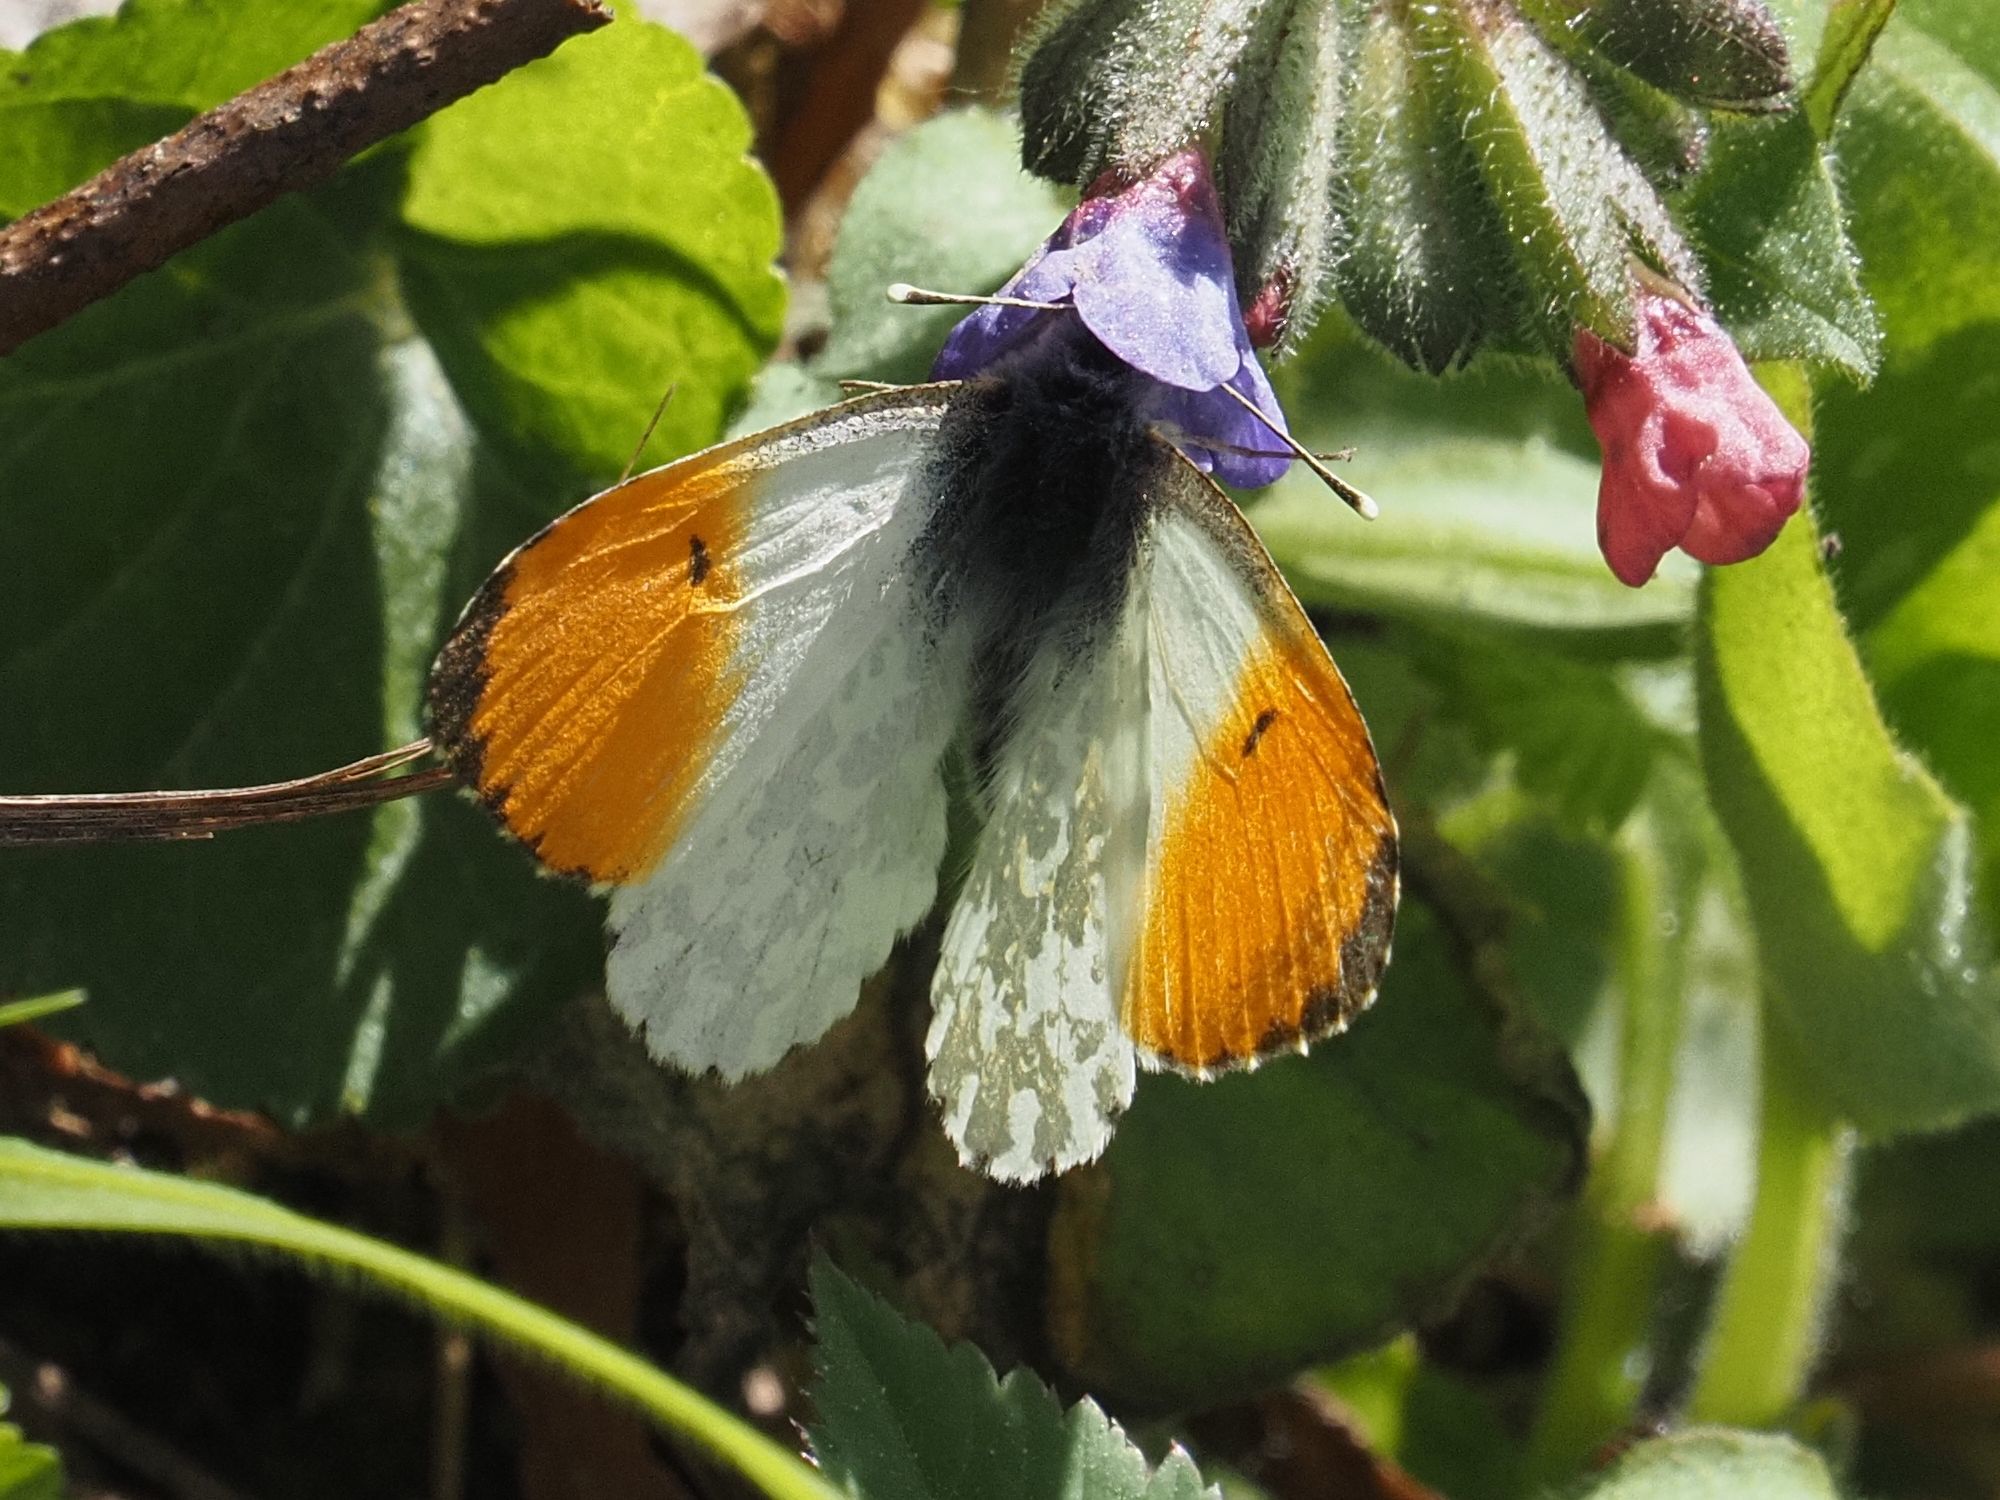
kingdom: Animalia
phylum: Arthropoda
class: Insecta
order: Lepidoptera
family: Pieridae
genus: Anthocharis
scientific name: Anthocharis cardamines
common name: Orange-tip
